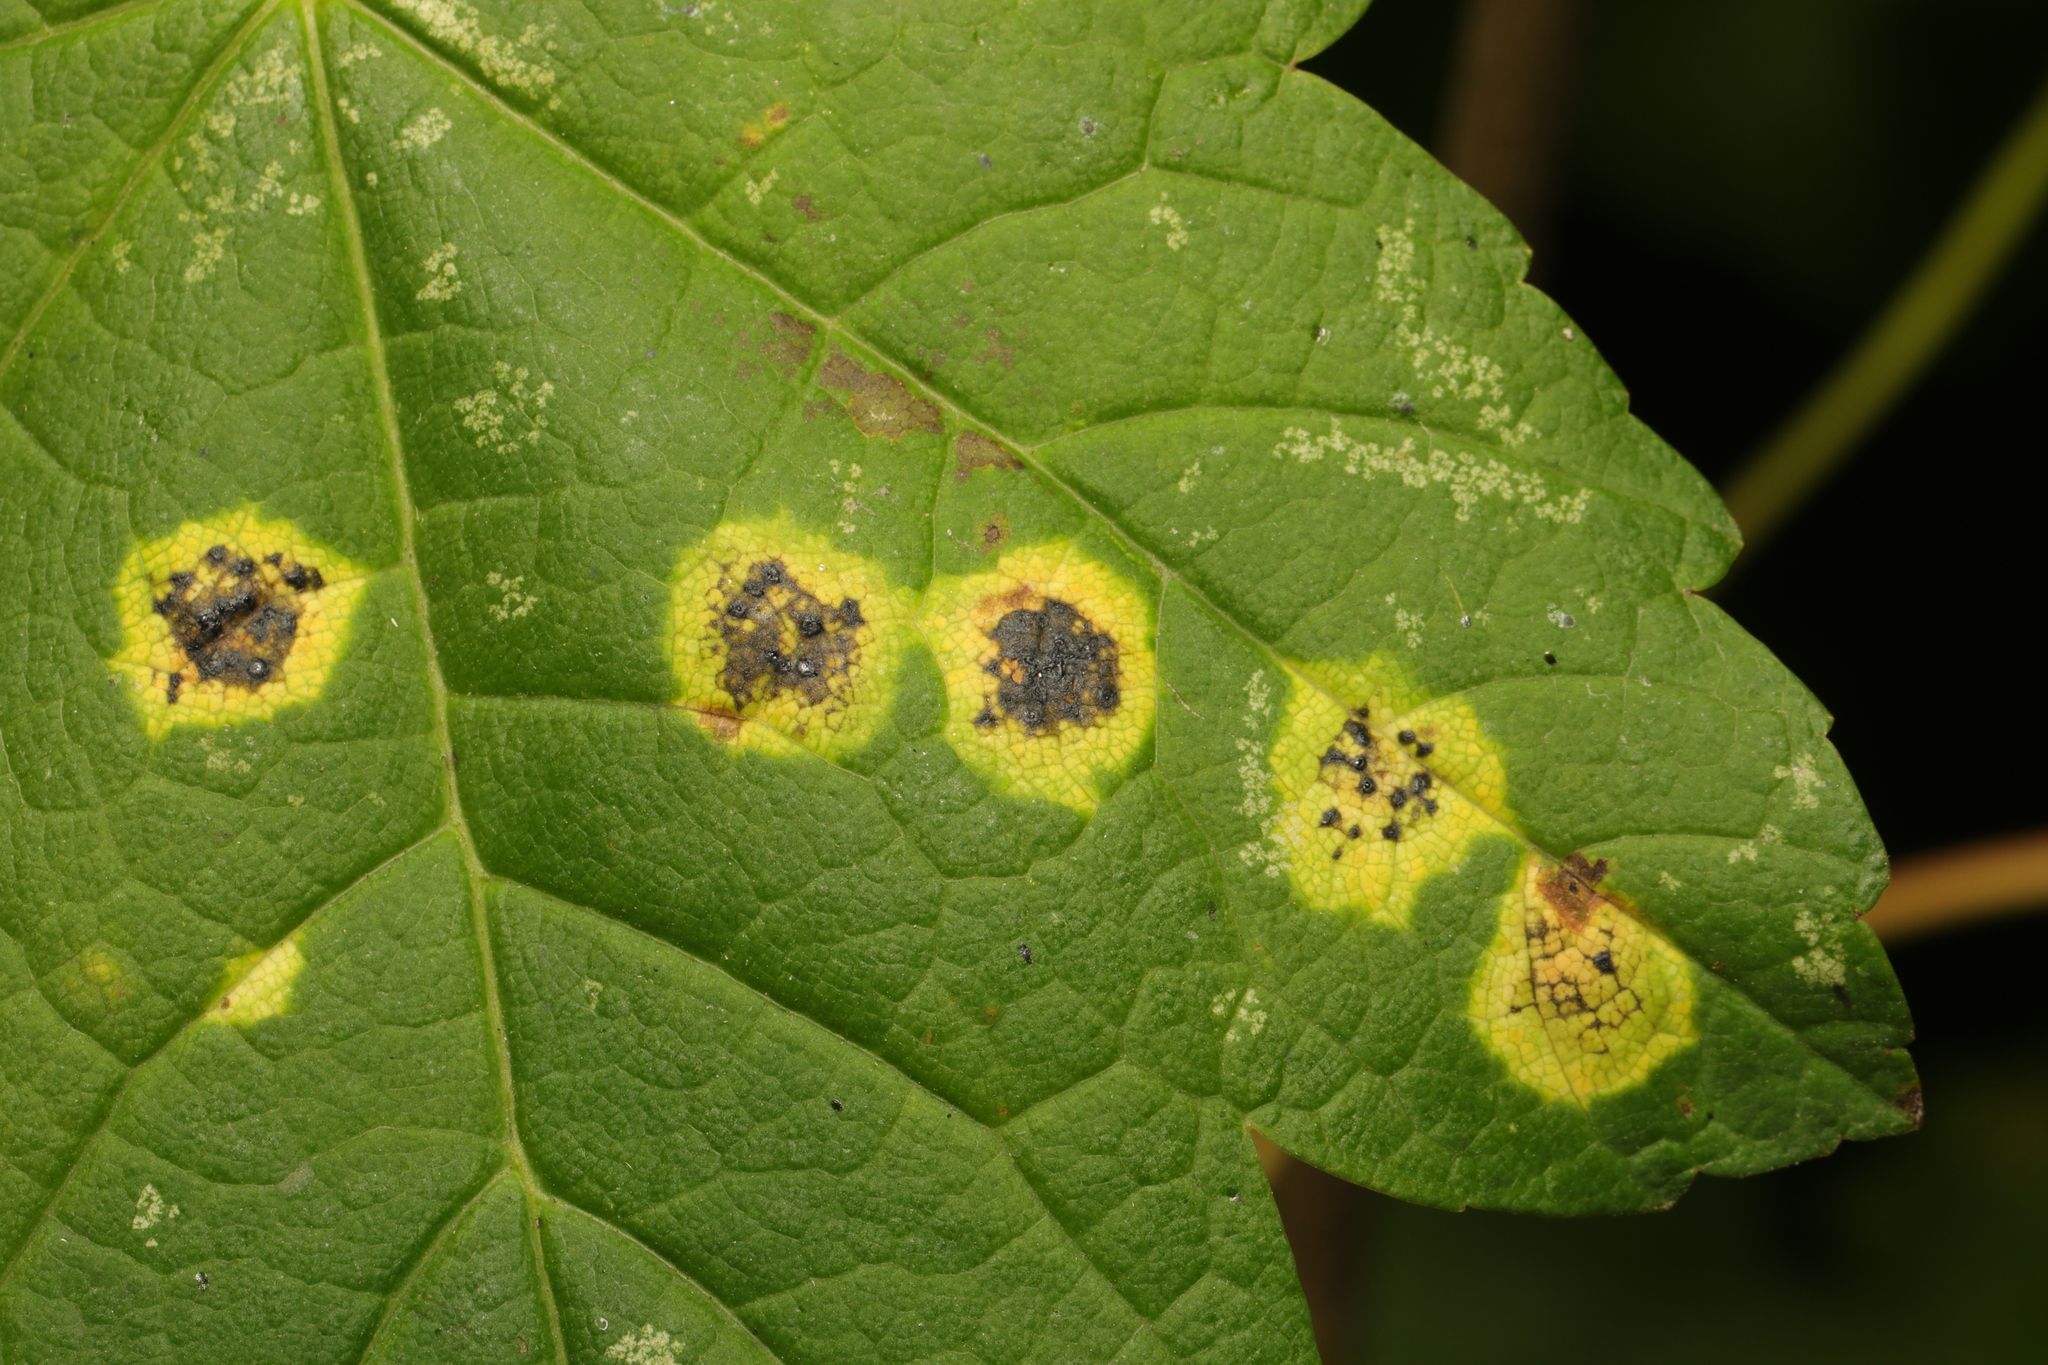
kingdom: Fungi
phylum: Ascomycota
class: Leotiomycetes
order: Rhytismatales
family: Rhytismataceae
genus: Rhytisma
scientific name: Rhytisma acerinum
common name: European tar spot
